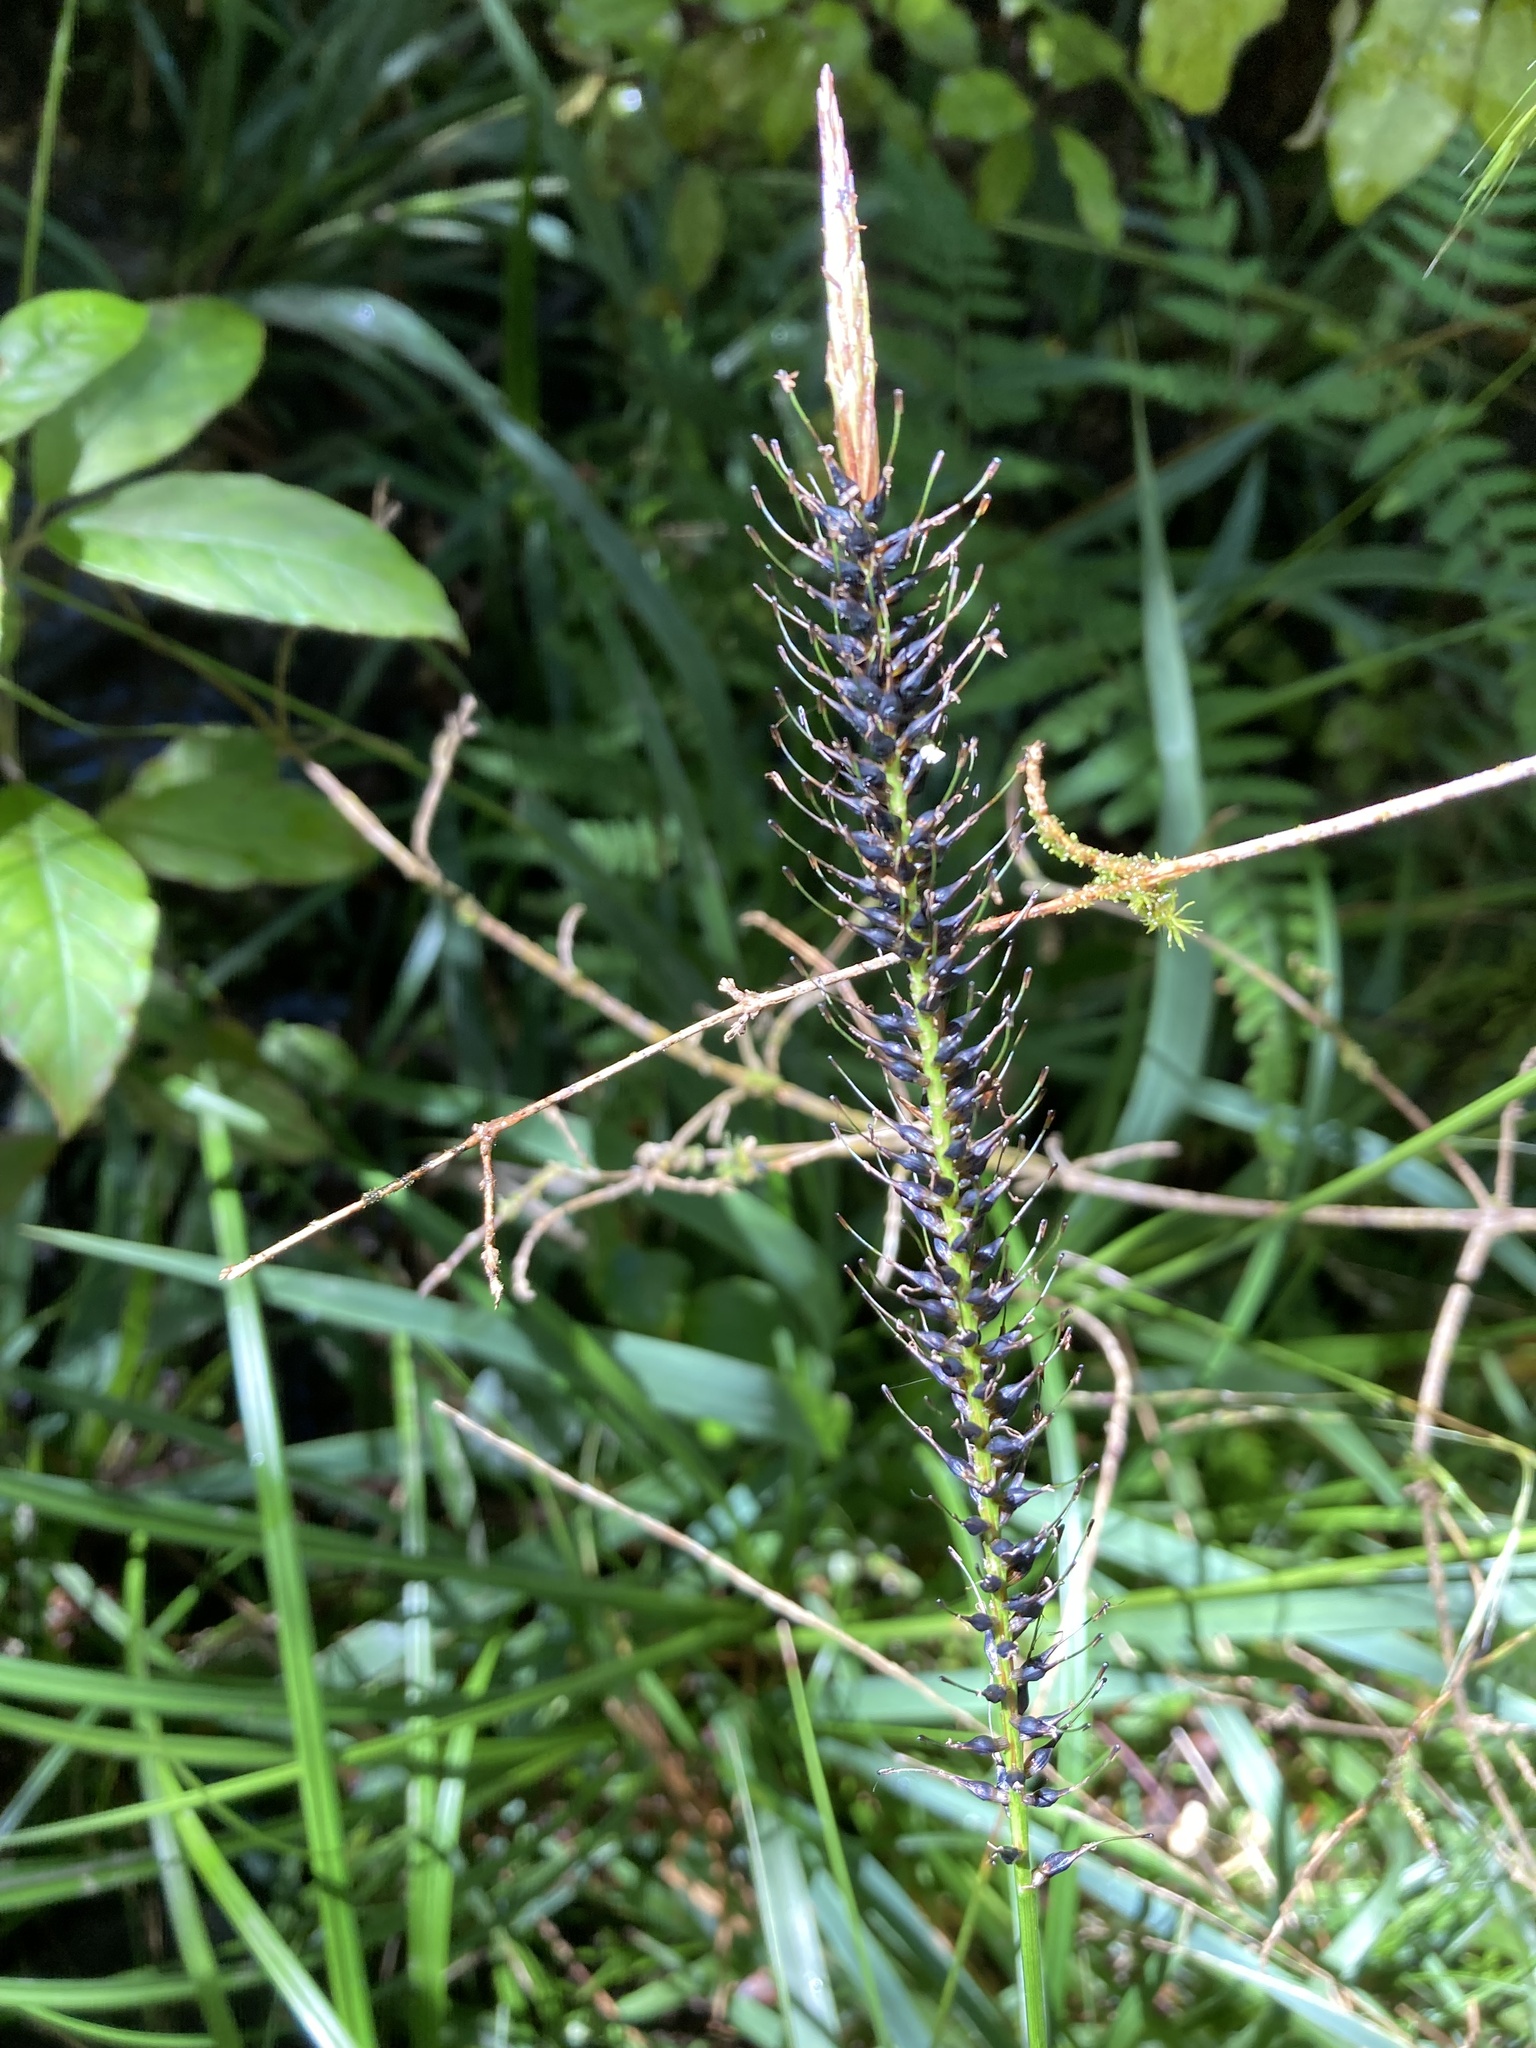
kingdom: Plantae
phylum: Tracheophyta
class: Liliopsida
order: Poales
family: Cyperaceae
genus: Carex
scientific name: Carex uncinata
